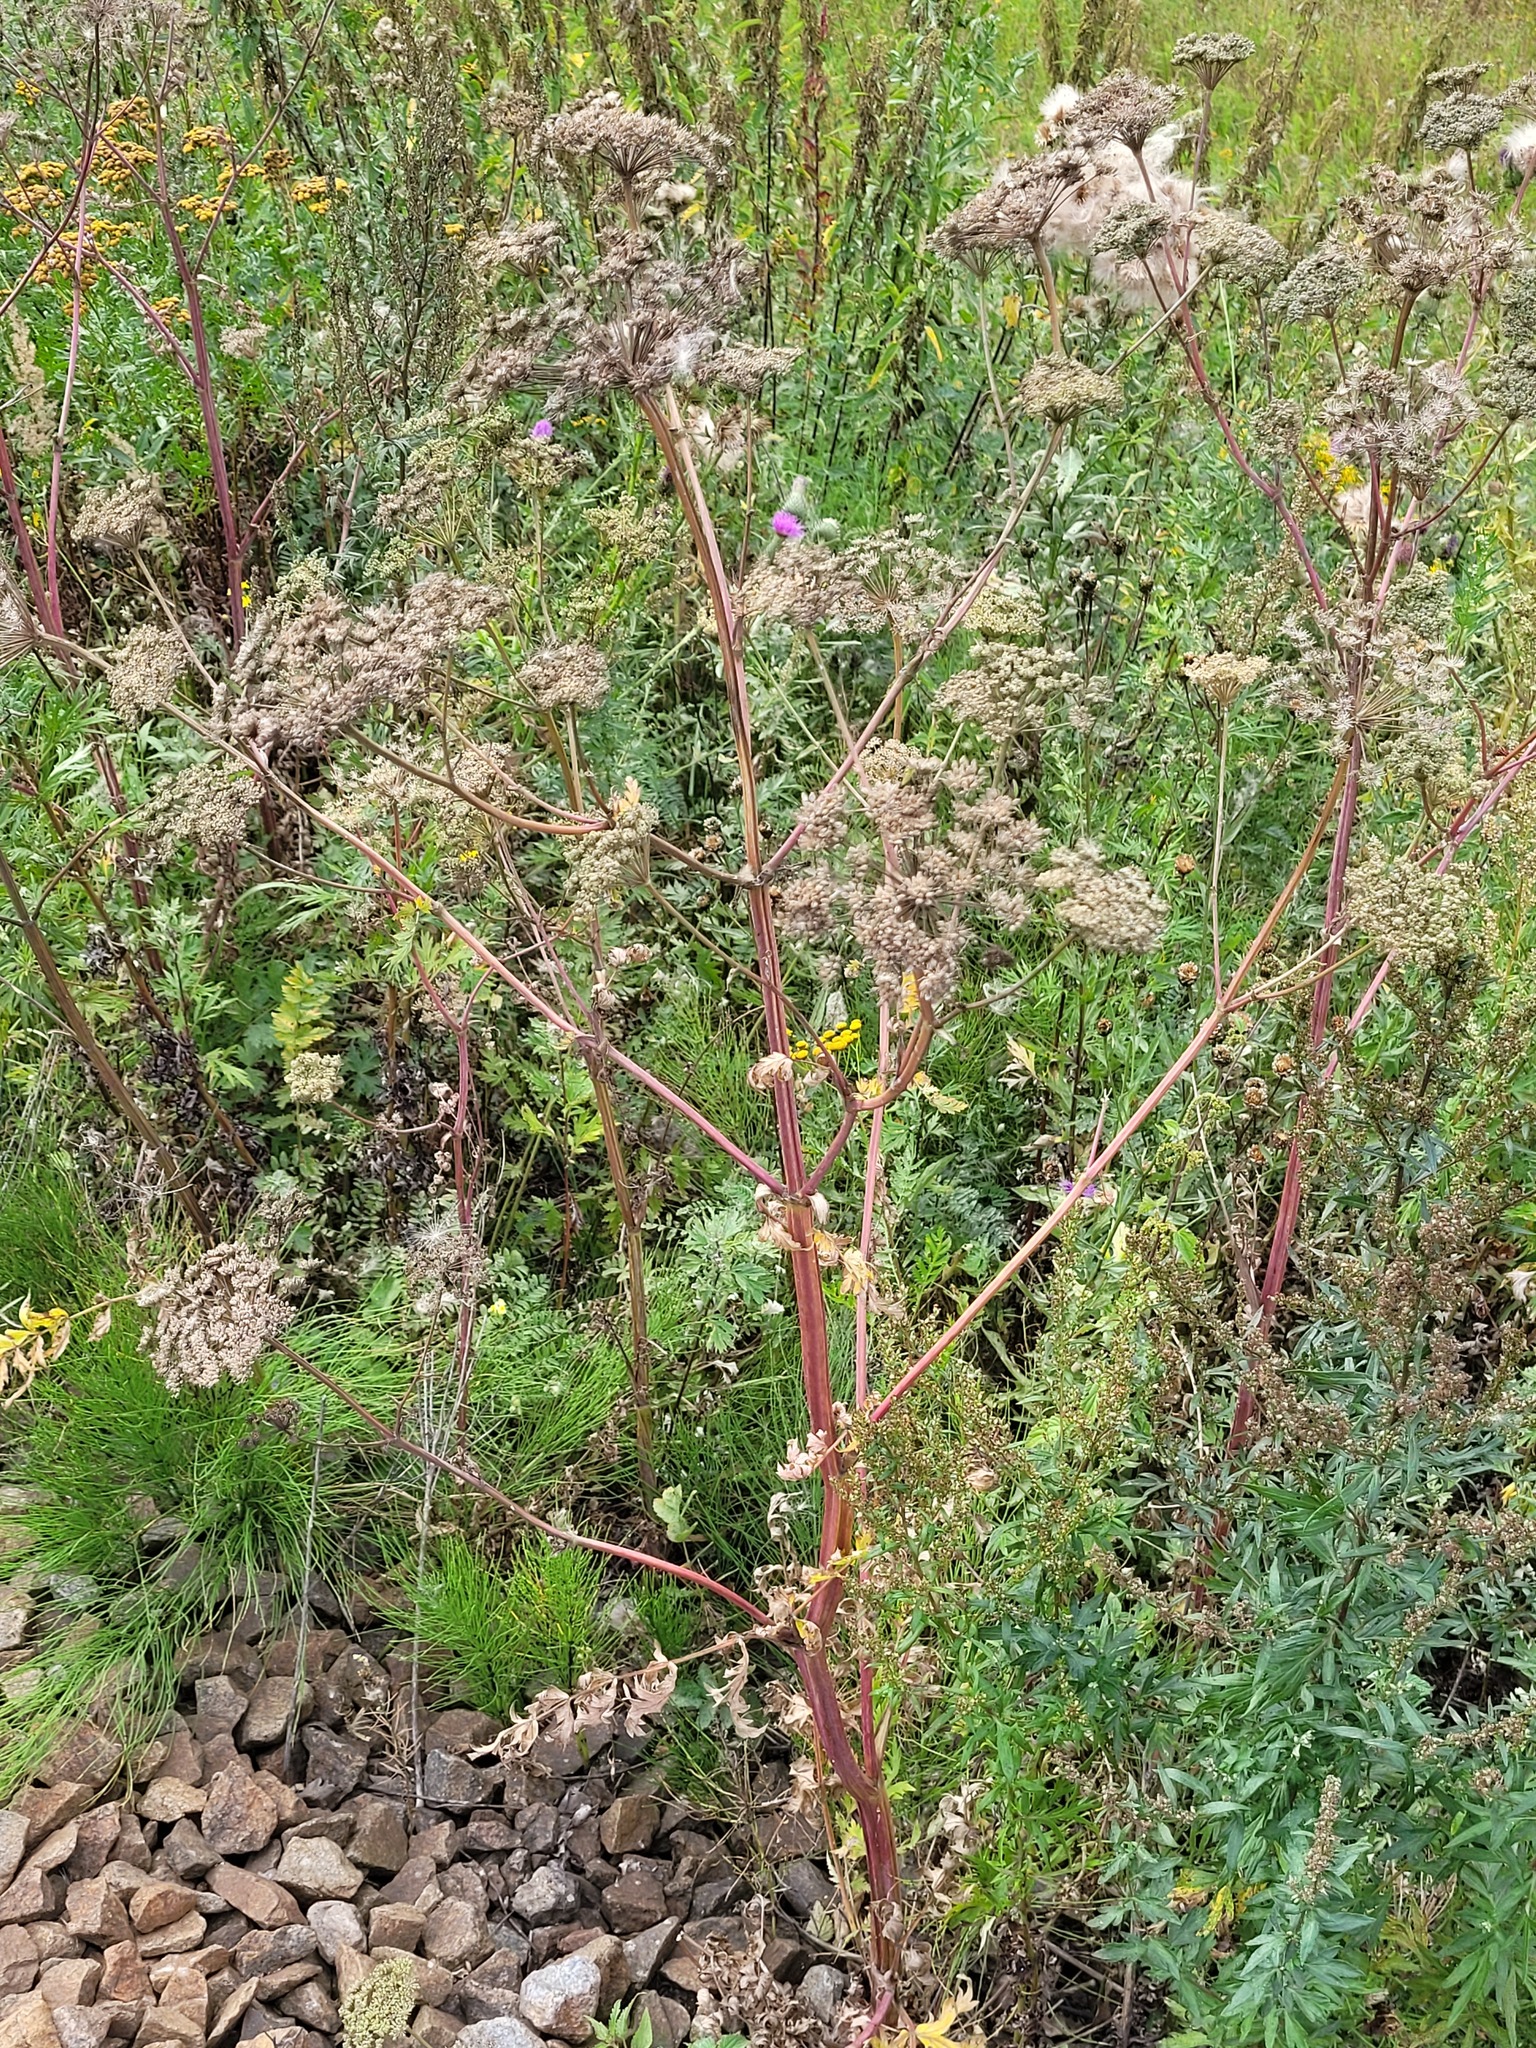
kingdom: Plantae
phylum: Tracheophyta
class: Magnoliopsida
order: Apiales
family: Apiaceae
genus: Seseli
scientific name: Seseli libanotis
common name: Mooncarrot
